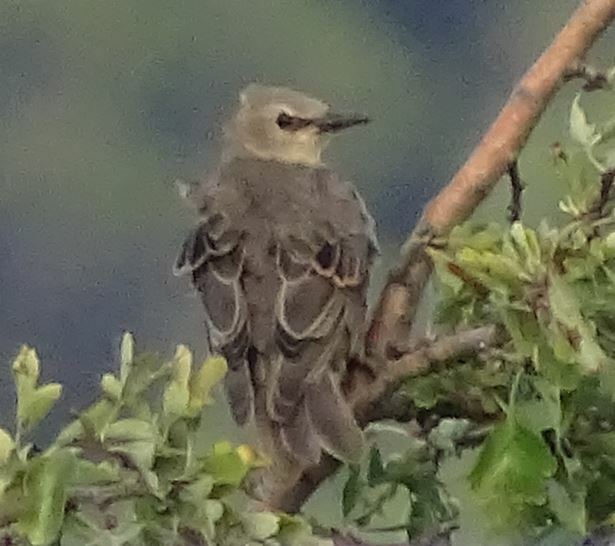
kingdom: Animalia
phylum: Chordata
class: Aves
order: Passeriformes
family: Sturnidae
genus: Sturnus
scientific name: Sturnus vulgaris
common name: Common starling
